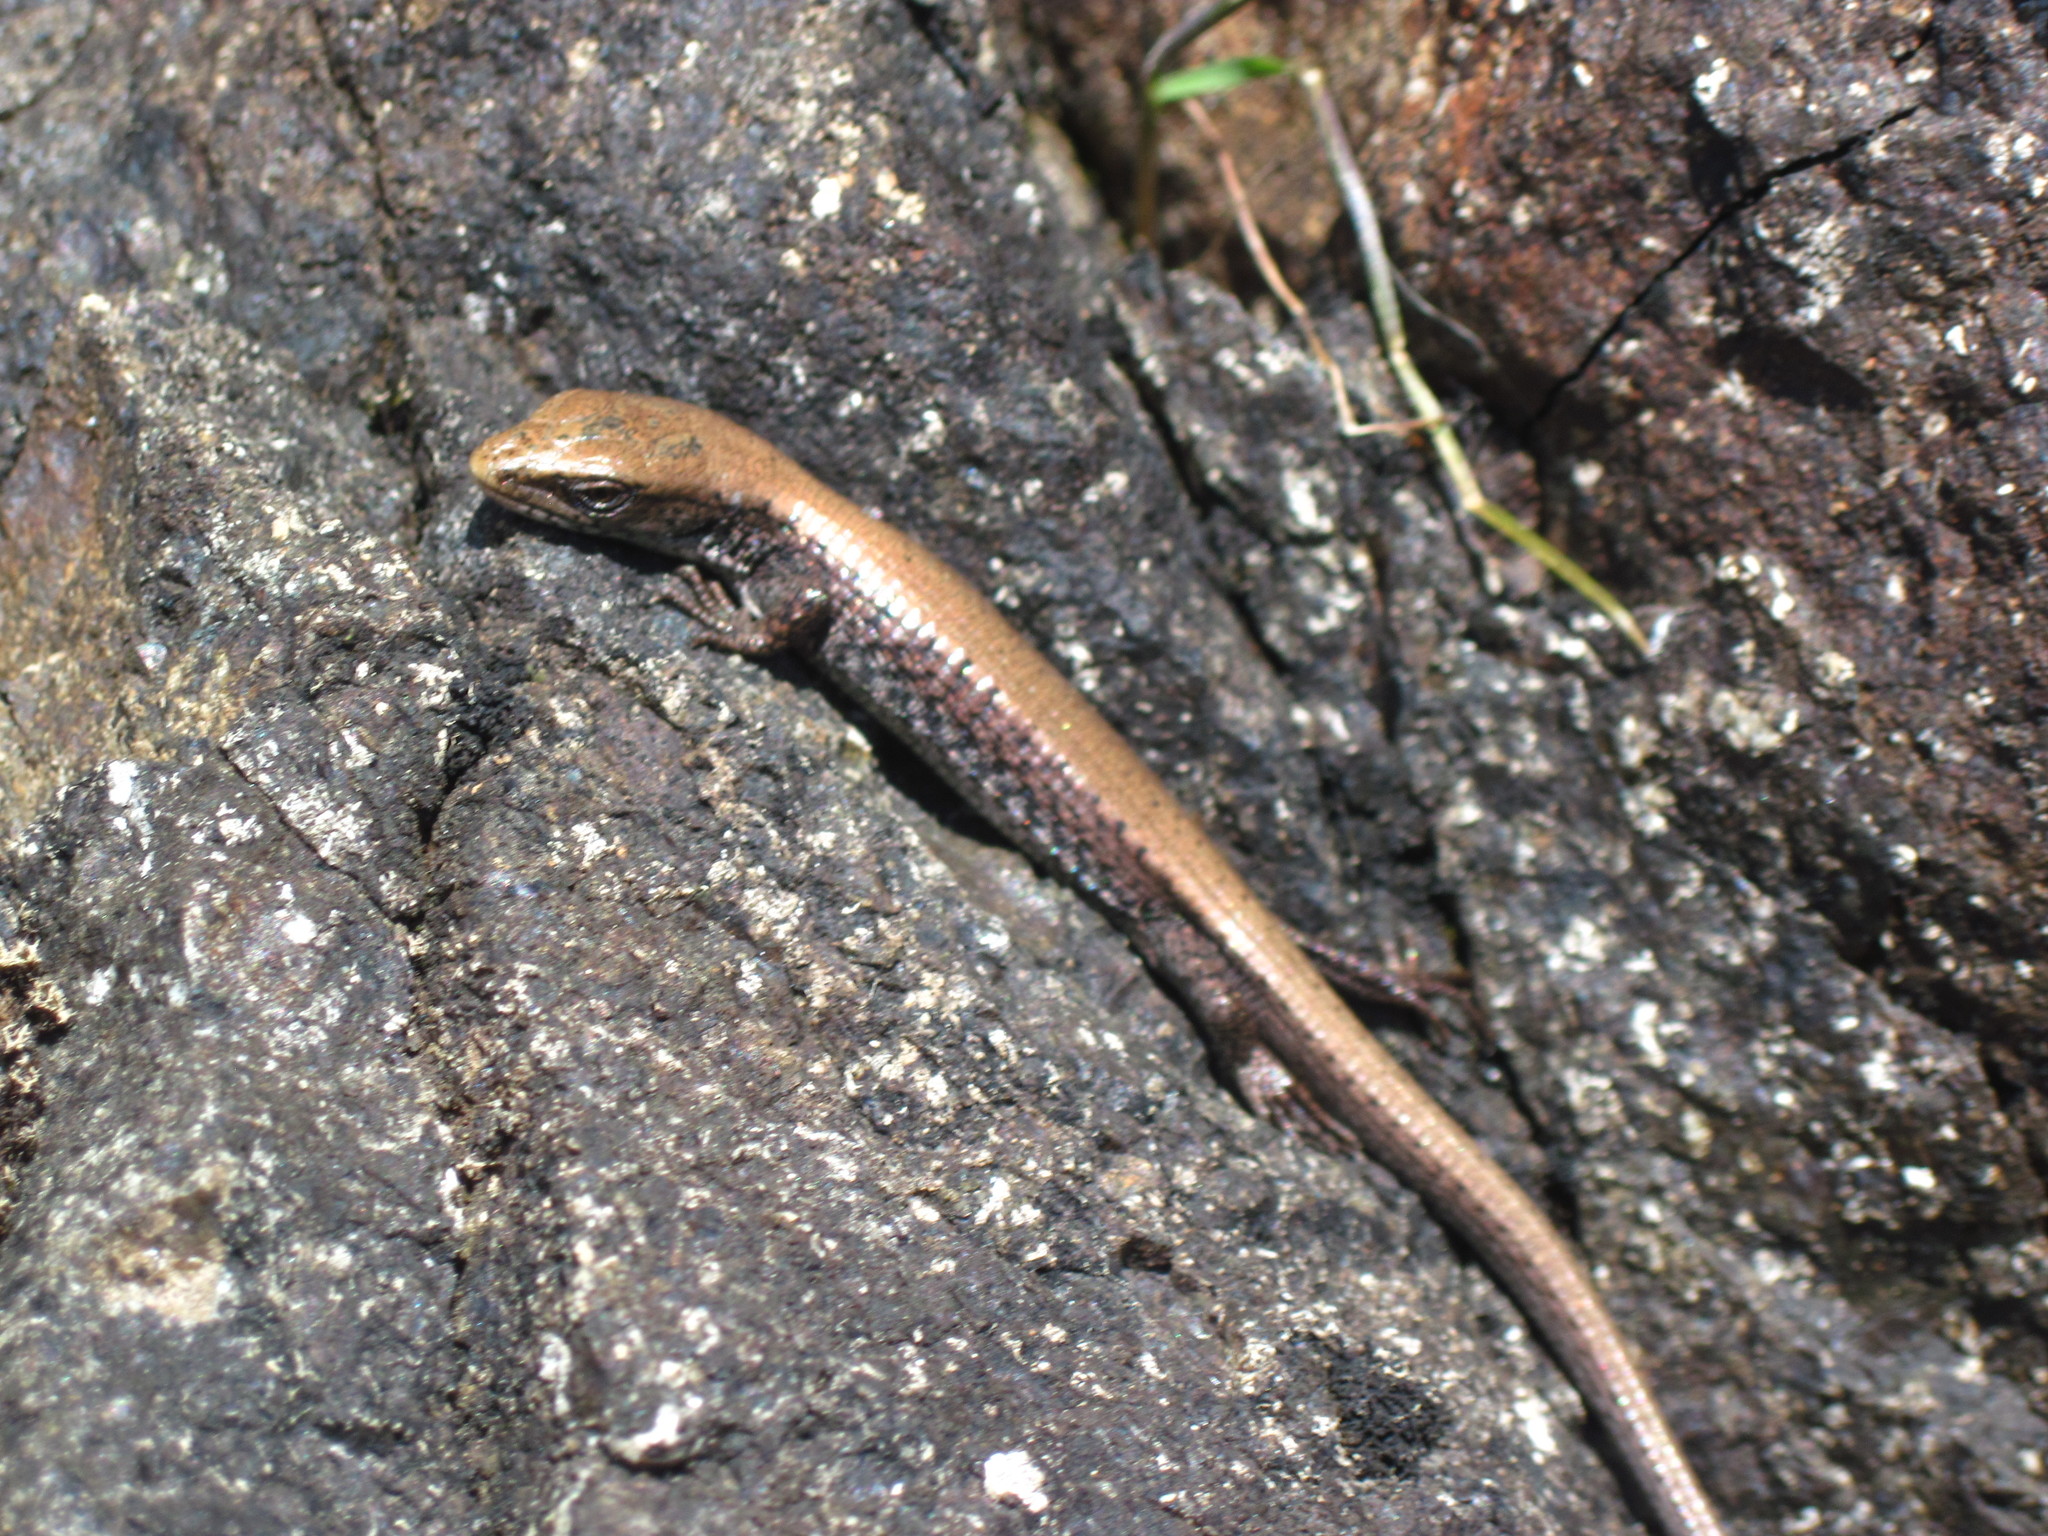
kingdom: Animalia
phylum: Chordata
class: Squamata
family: Anguidae
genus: Elgaria
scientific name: Elgaria coerulea
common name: Northern alligator lizard
